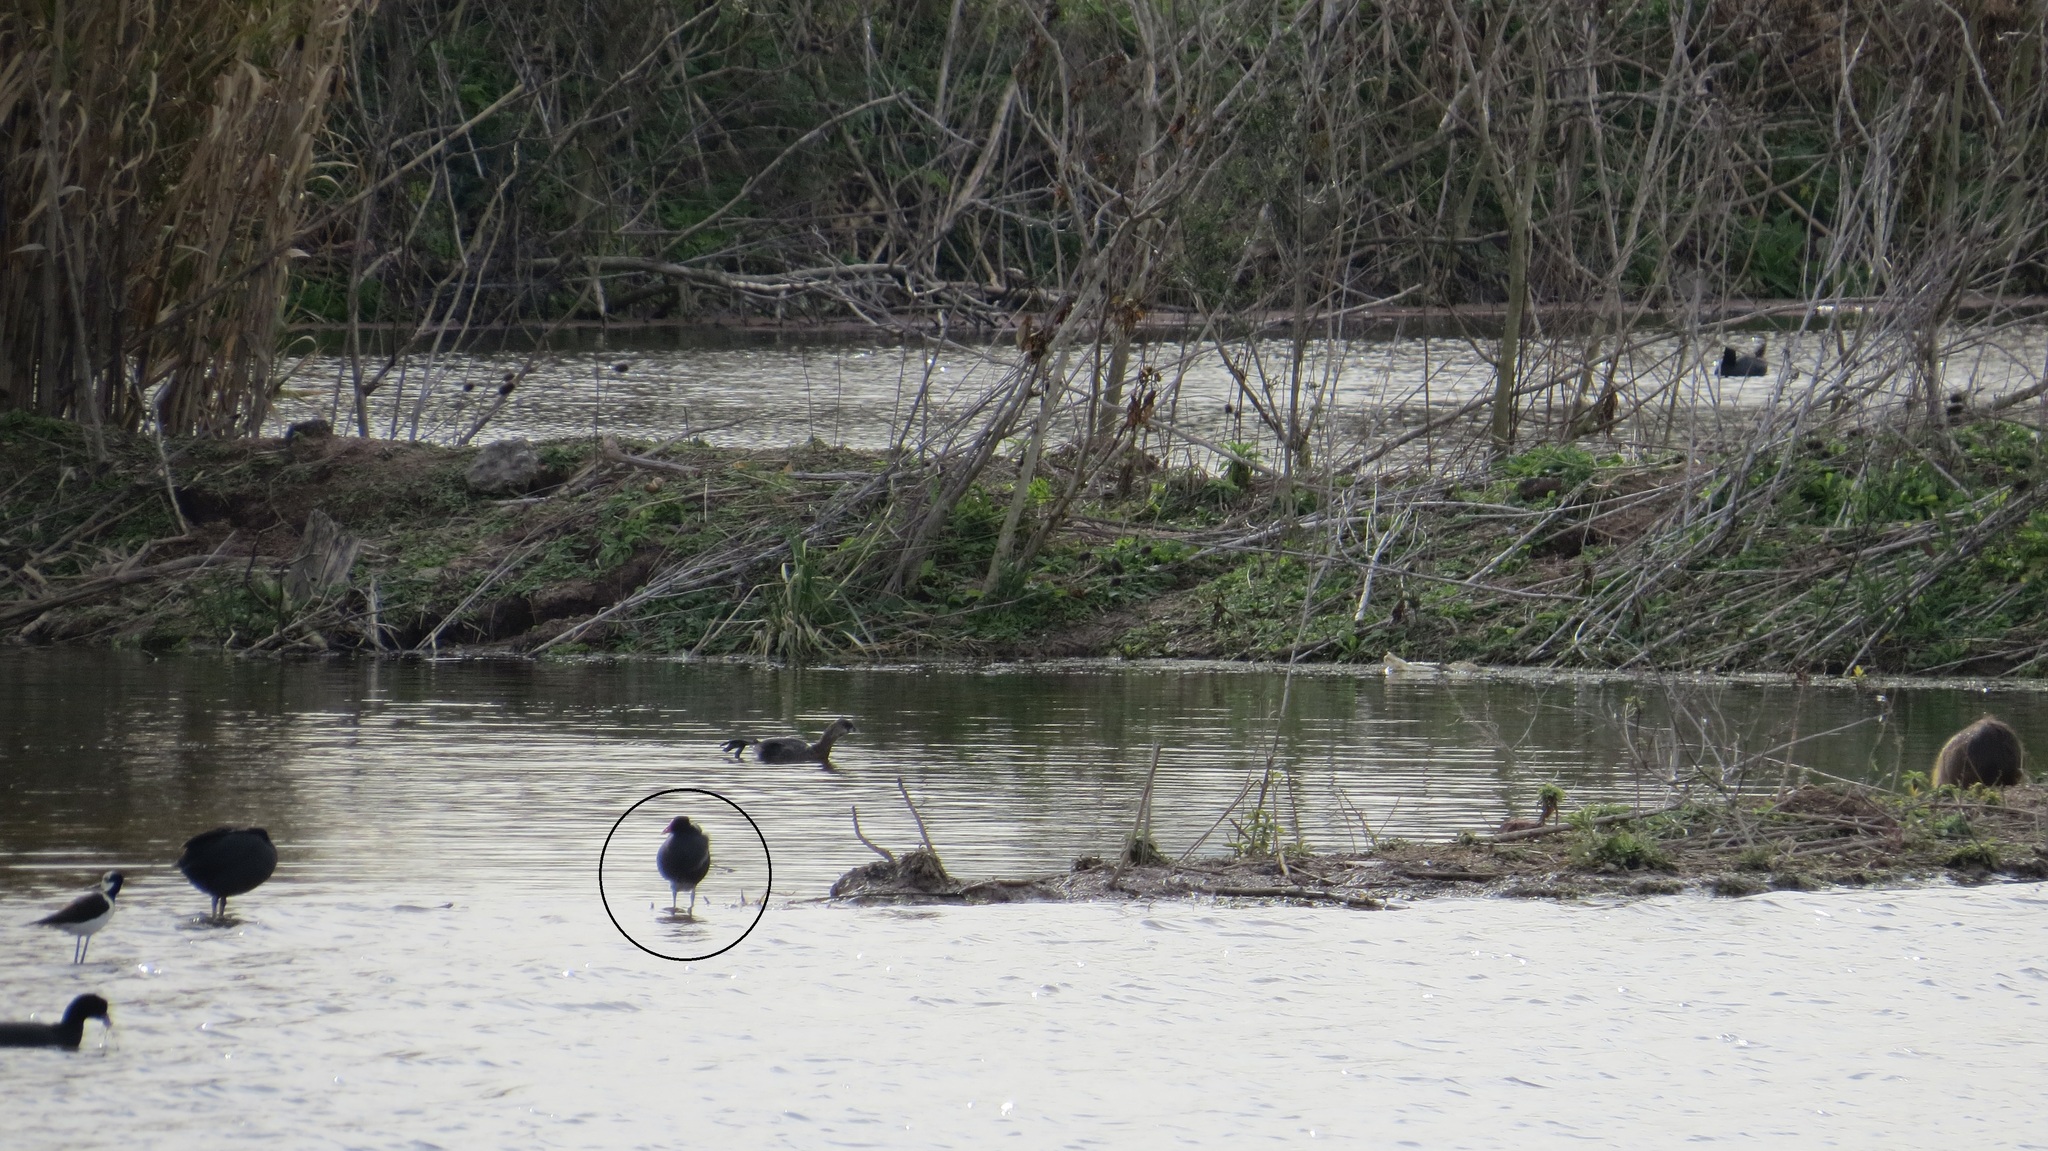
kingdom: Animalia
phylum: Chordata
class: Aves
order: Gruiformes
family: Rallidae
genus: Gallinula
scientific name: Gallinula chloropus
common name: Common moorhen
